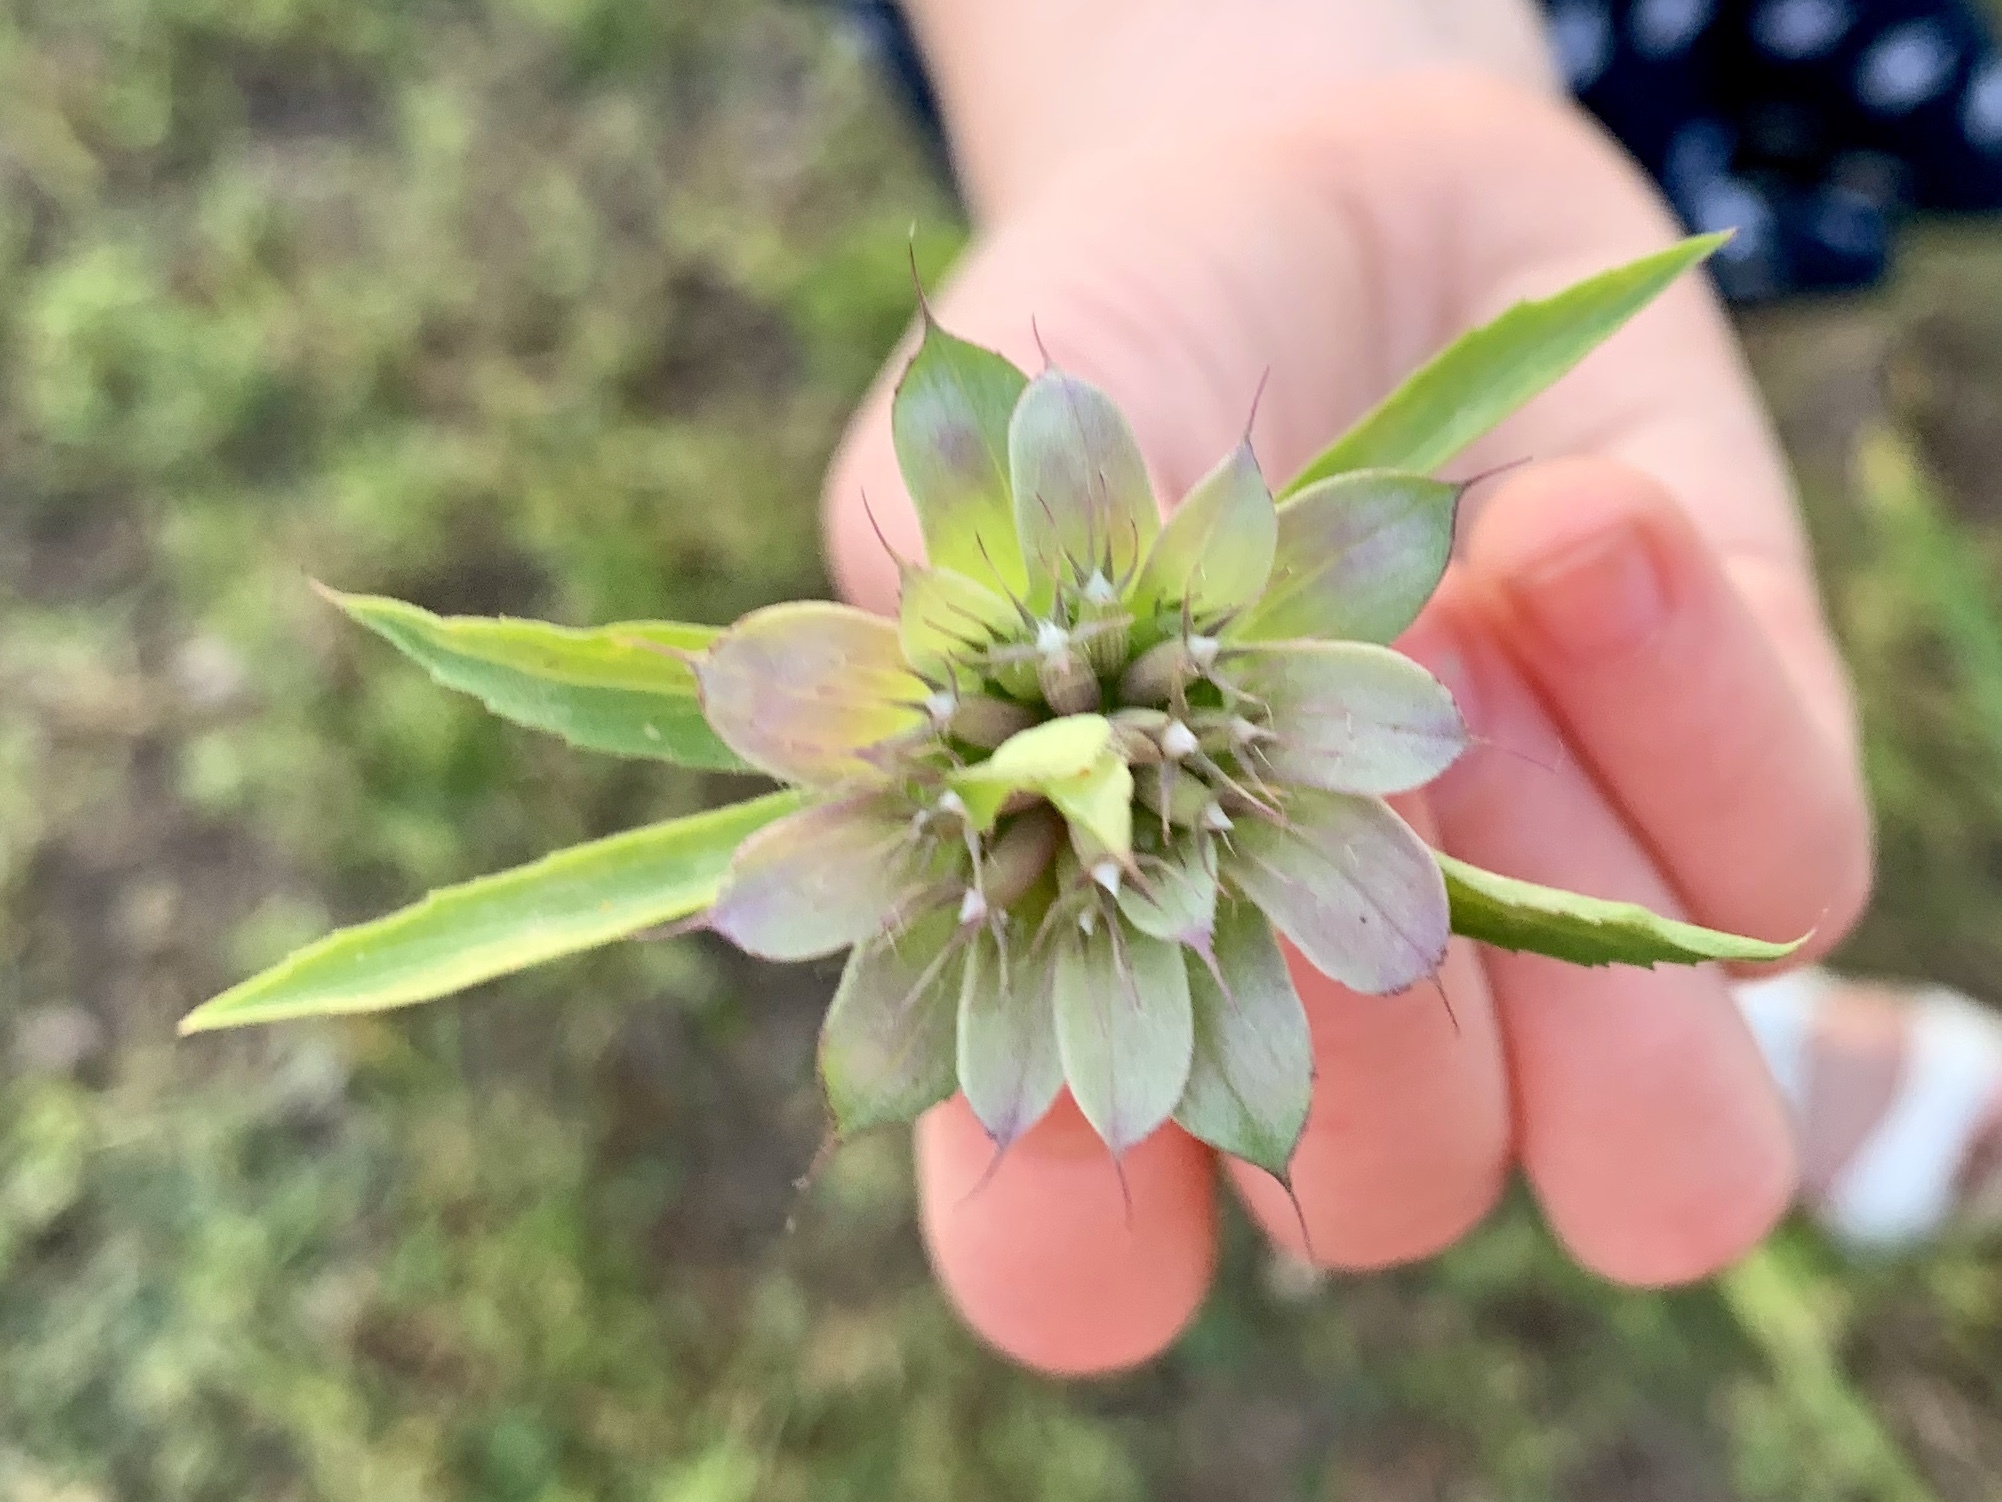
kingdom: Plantae
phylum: Tracheophyta
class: Magnoliopsida
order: Lamiales
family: Lamiaceae
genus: Monarda
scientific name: Monarda citriodora
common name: Lemon beebalm
